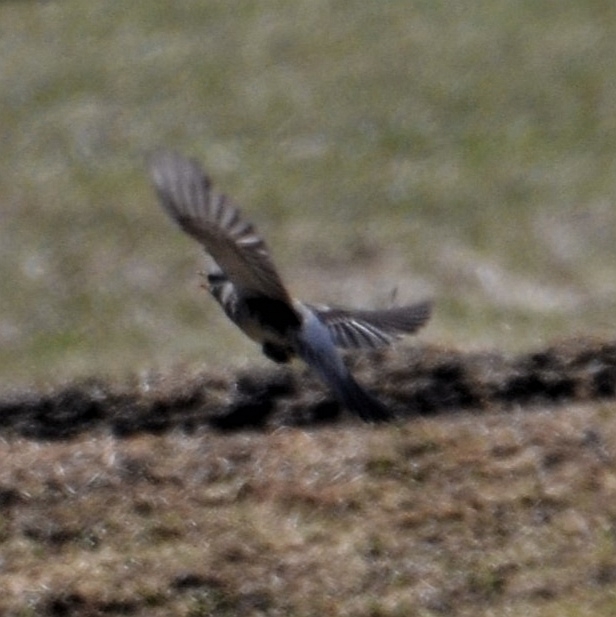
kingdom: Animalia
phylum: Chordata
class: Aves
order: Passeriformes
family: Turdidae
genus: Turdus
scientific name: Turdus pilaris
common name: Fieldfare
